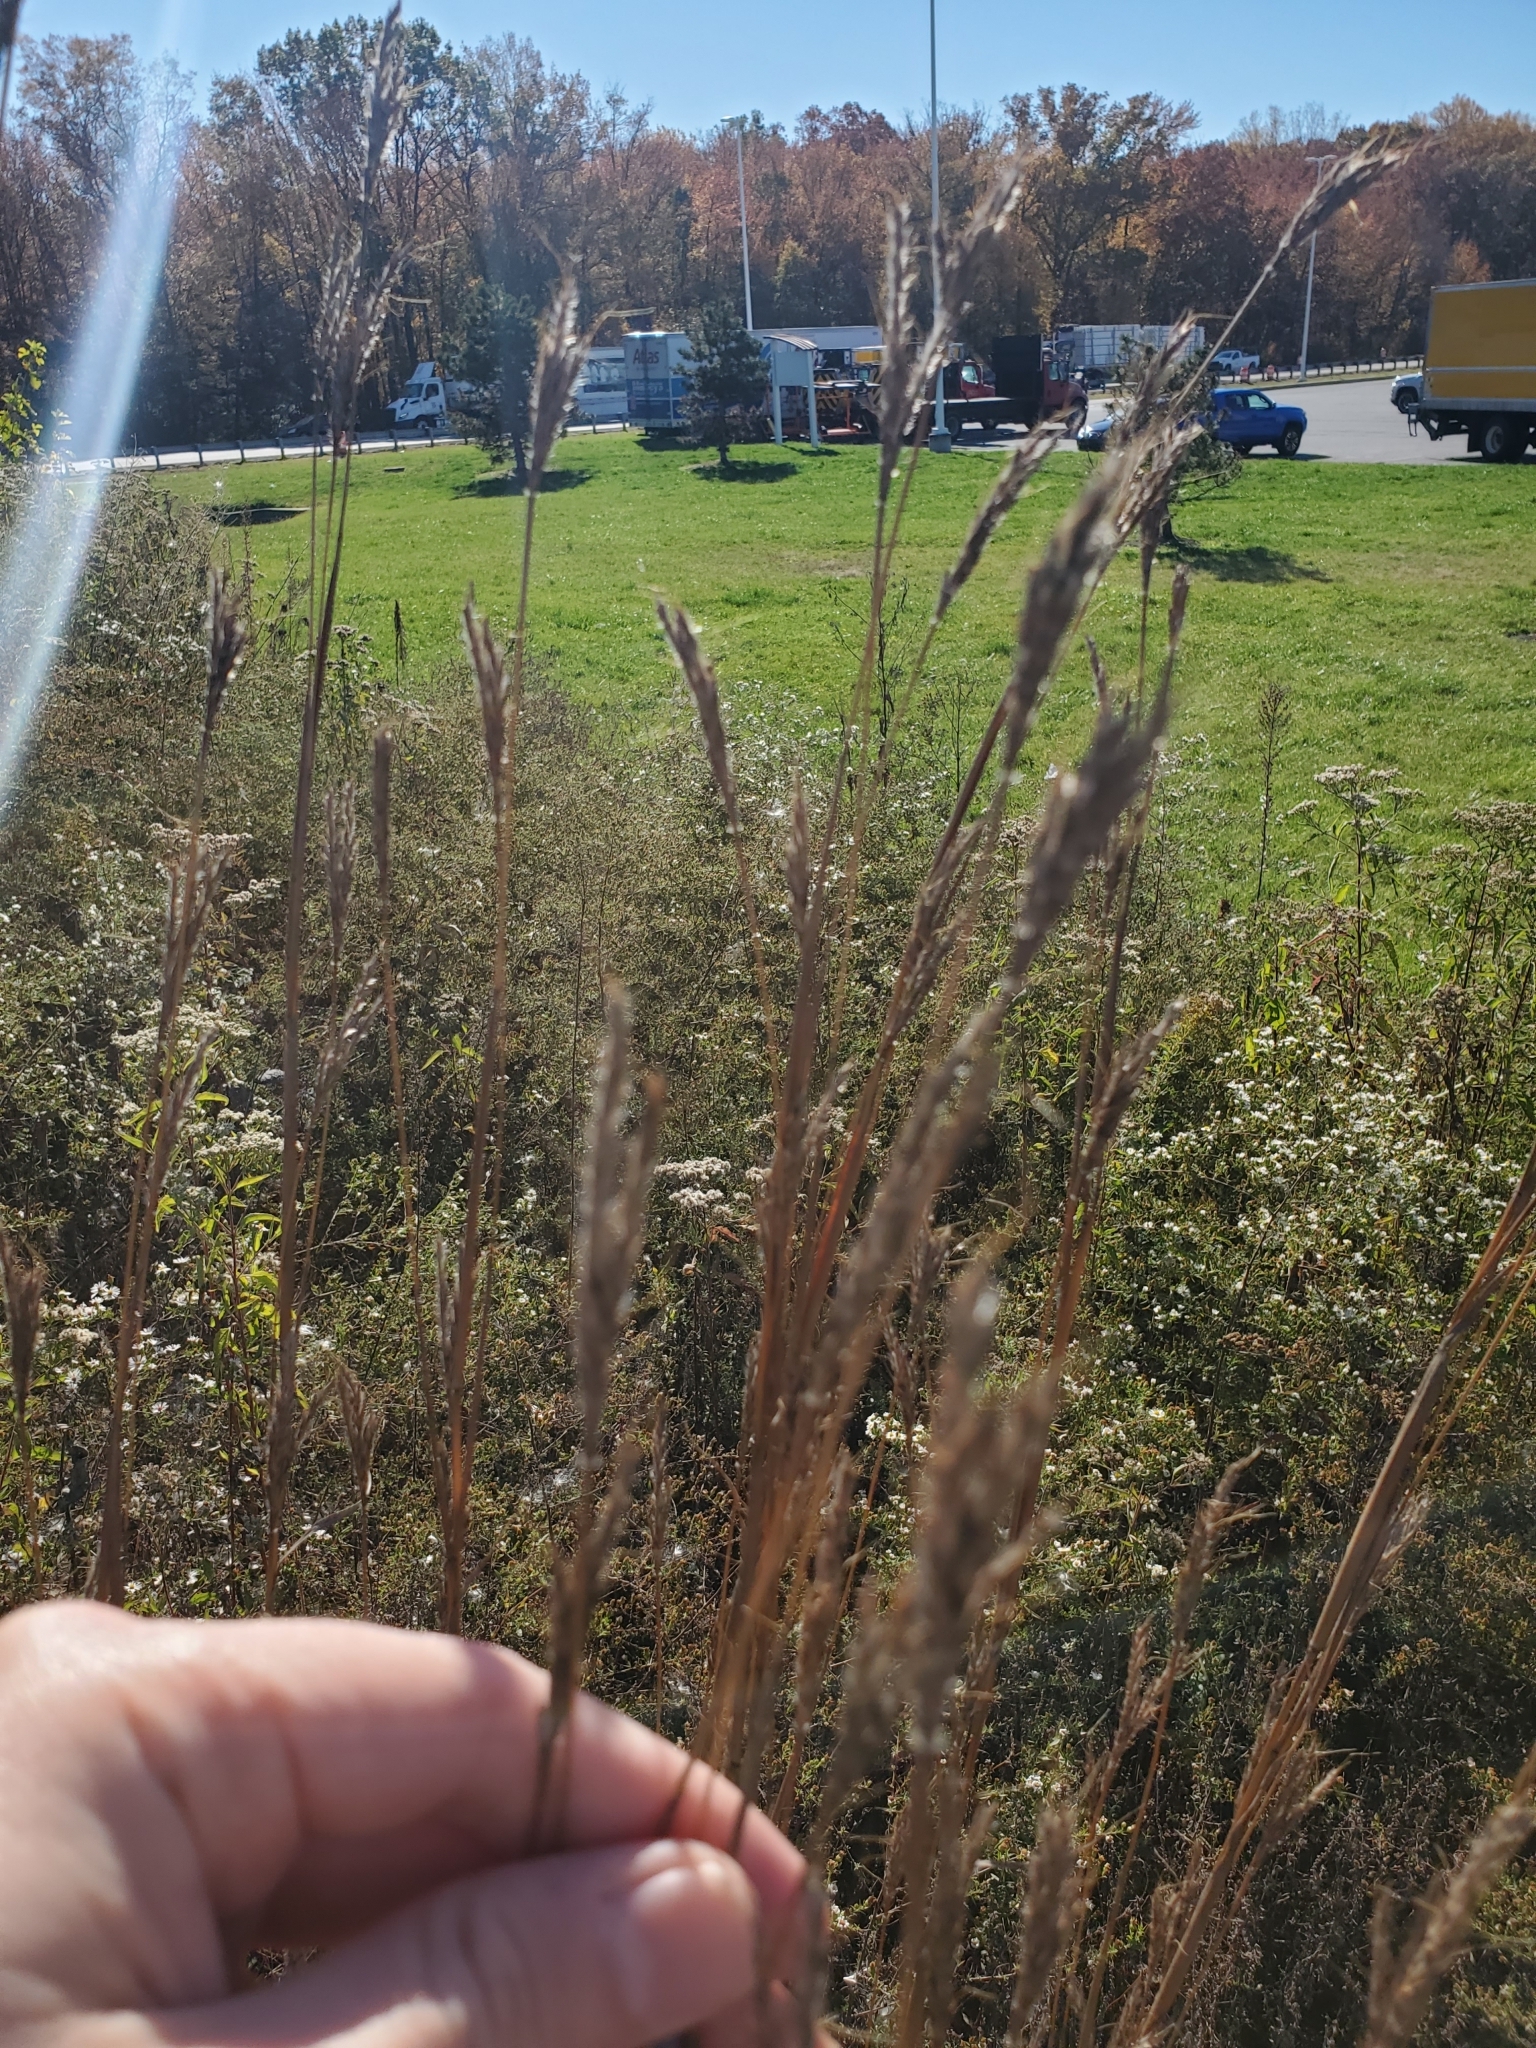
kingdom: Plantae
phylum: Tracheophyta
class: Liliopsida
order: Poales
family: Poaceae
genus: Andropogon
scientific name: Andropogon gerardi
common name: Big bluestem
